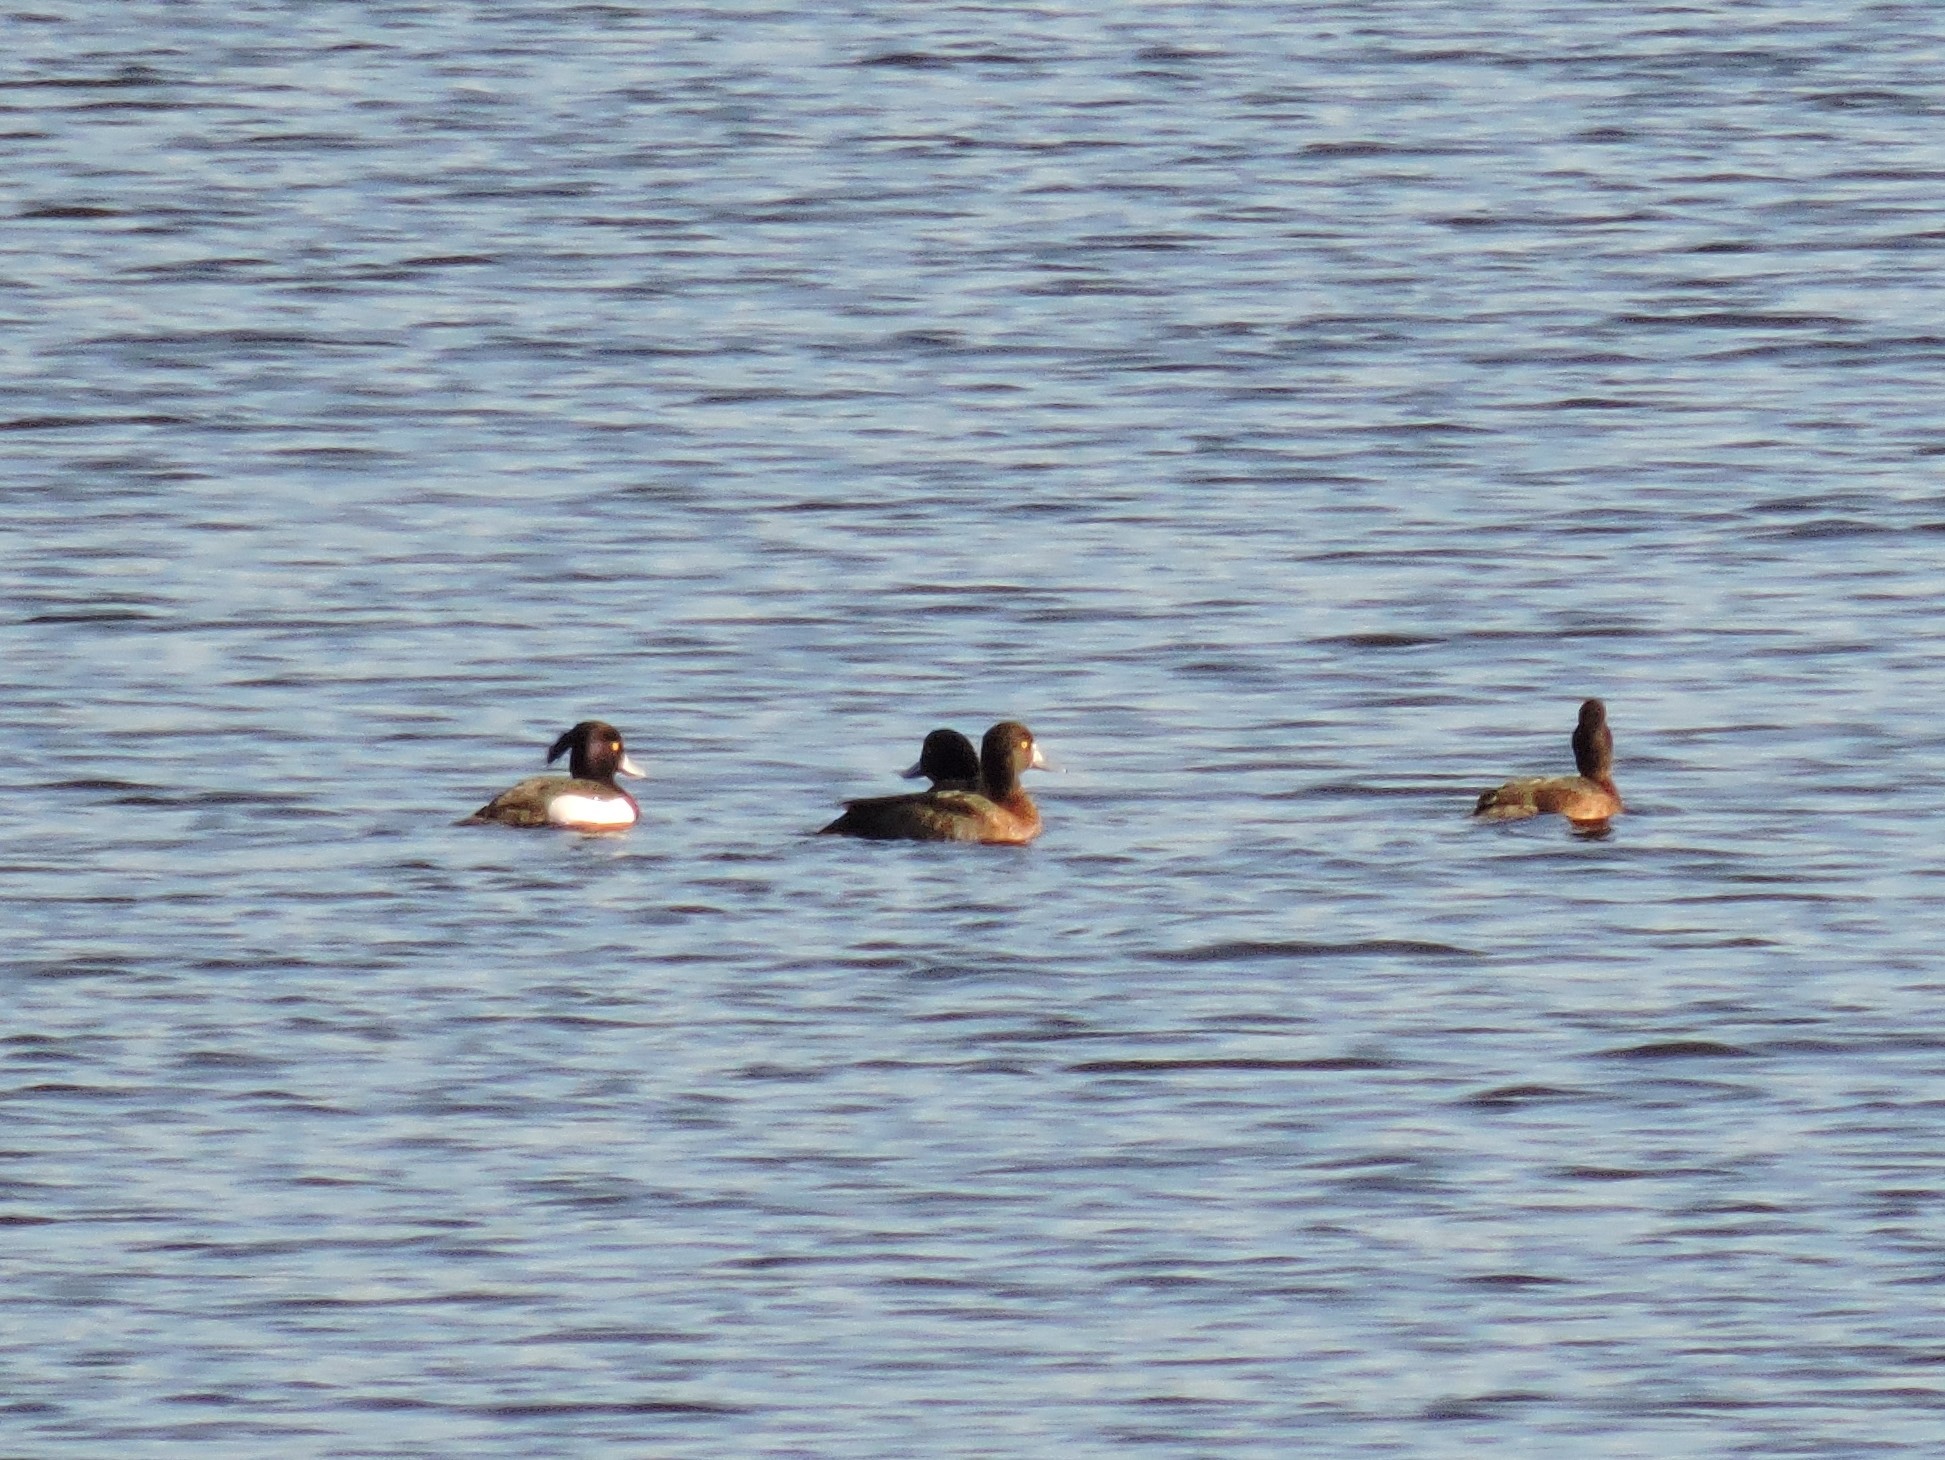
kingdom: Animalia
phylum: Chordata
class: Aves
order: Anseriformes
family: Anatidae
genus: Aythya
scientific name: Aythya fuligula
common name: Tufted duck
